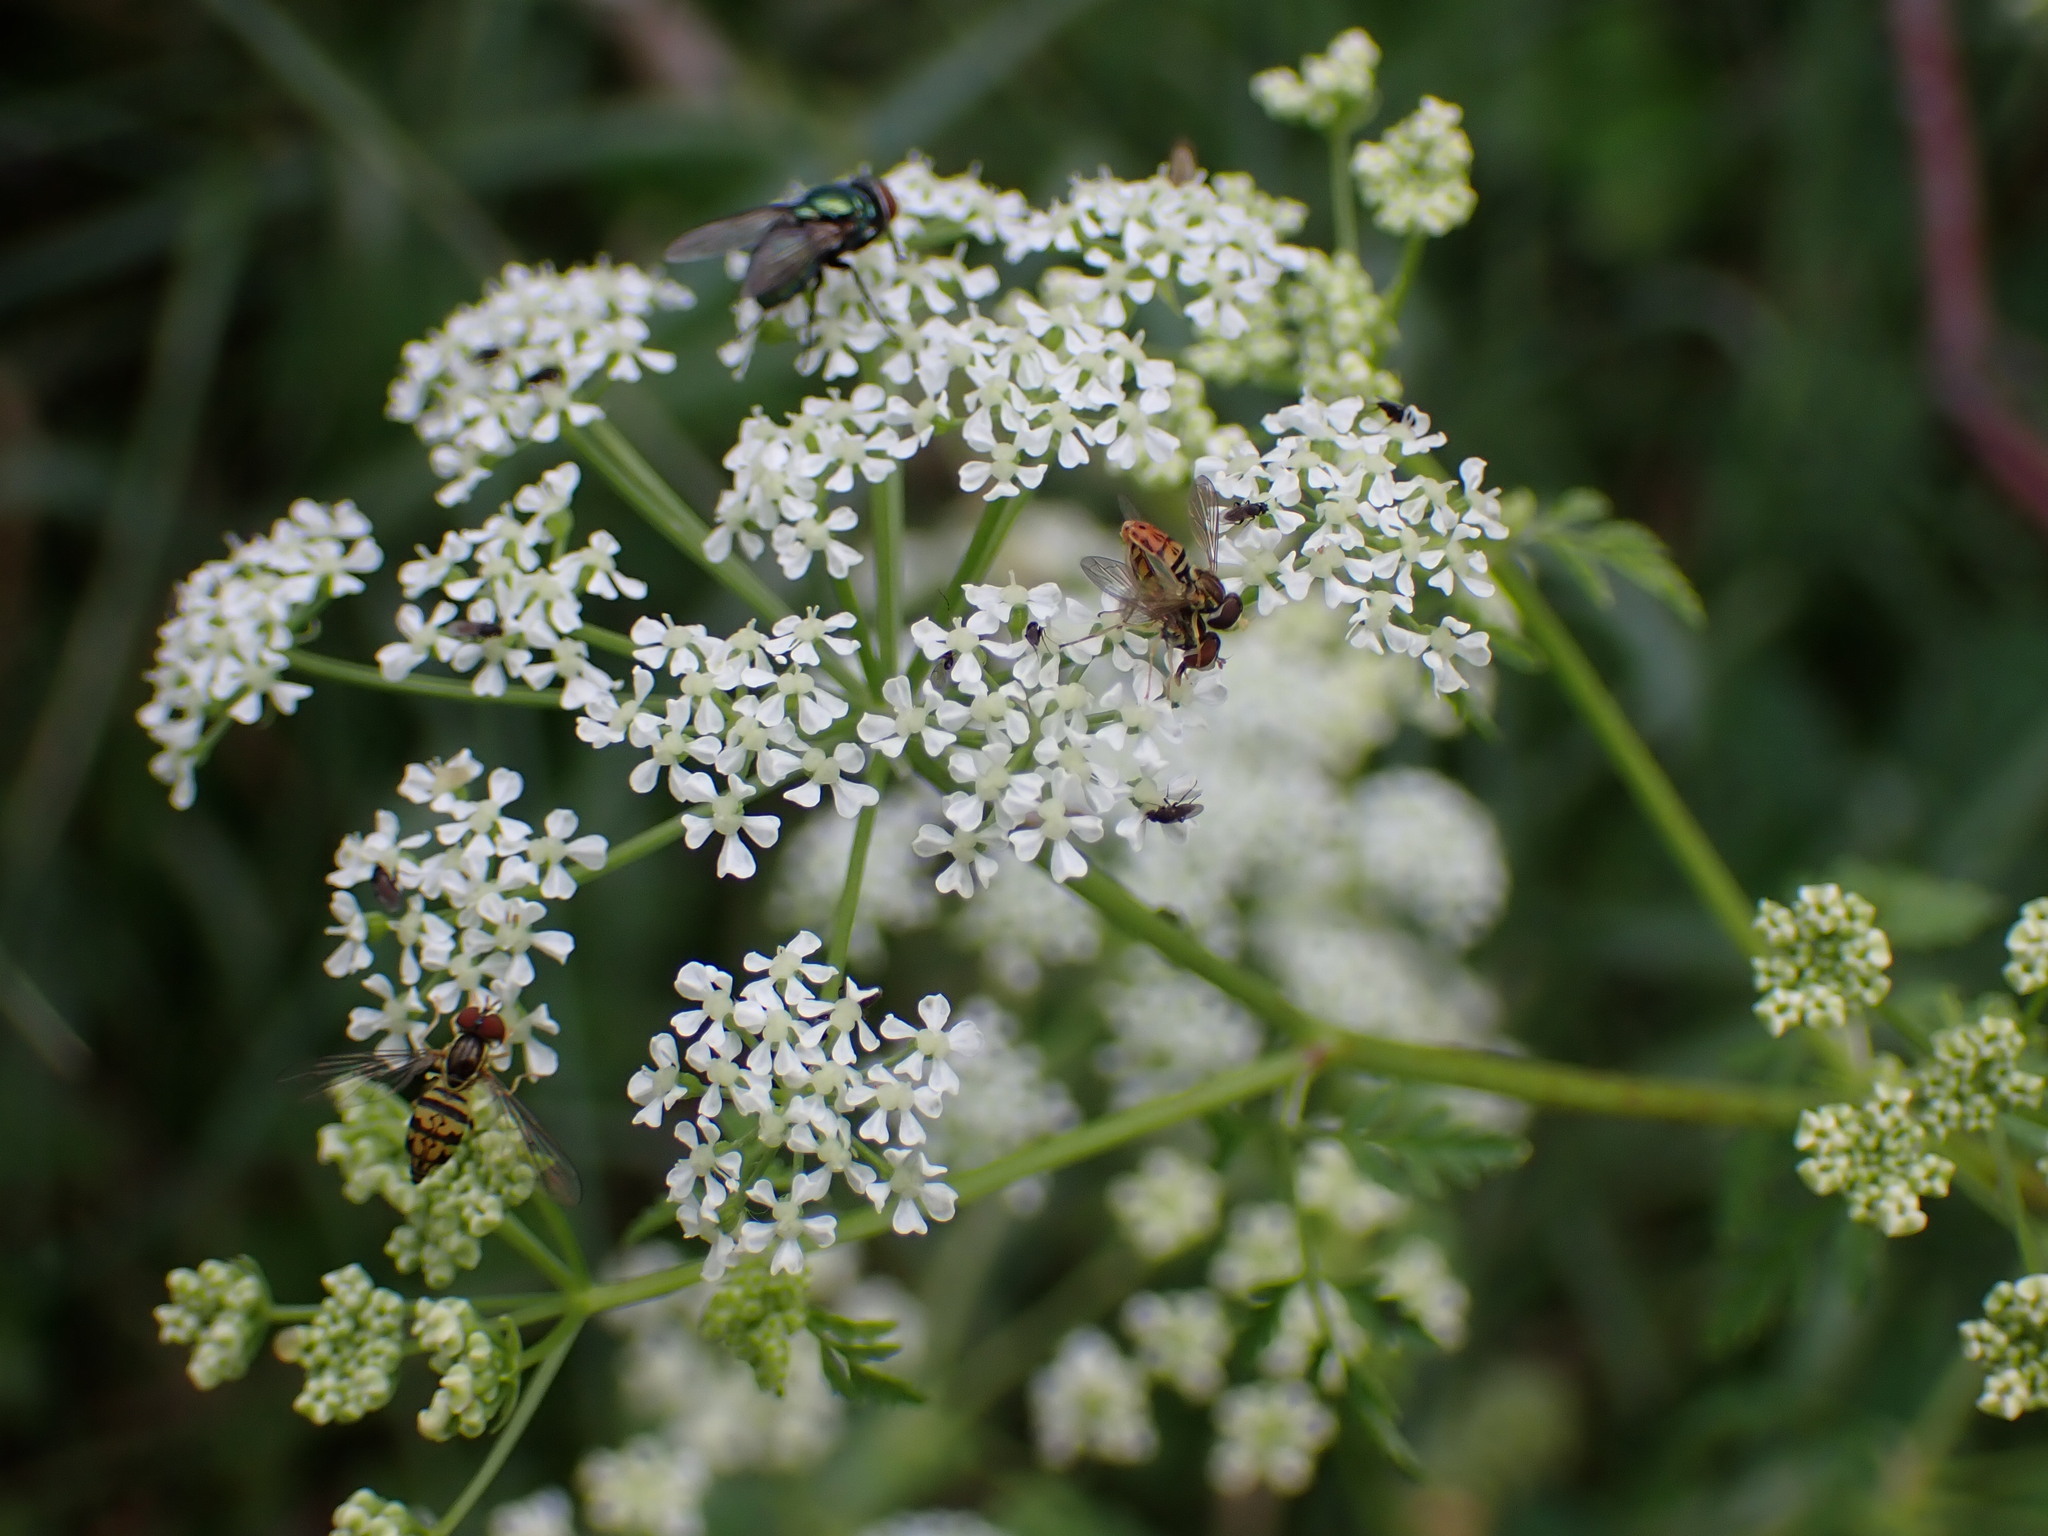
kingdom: Animalia
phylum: Arthropoda
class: Insecta
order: Diptera
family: Syrphidae
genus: Toxomerus
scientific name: Toxomerus geminatus
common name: Eastern calligrapher
